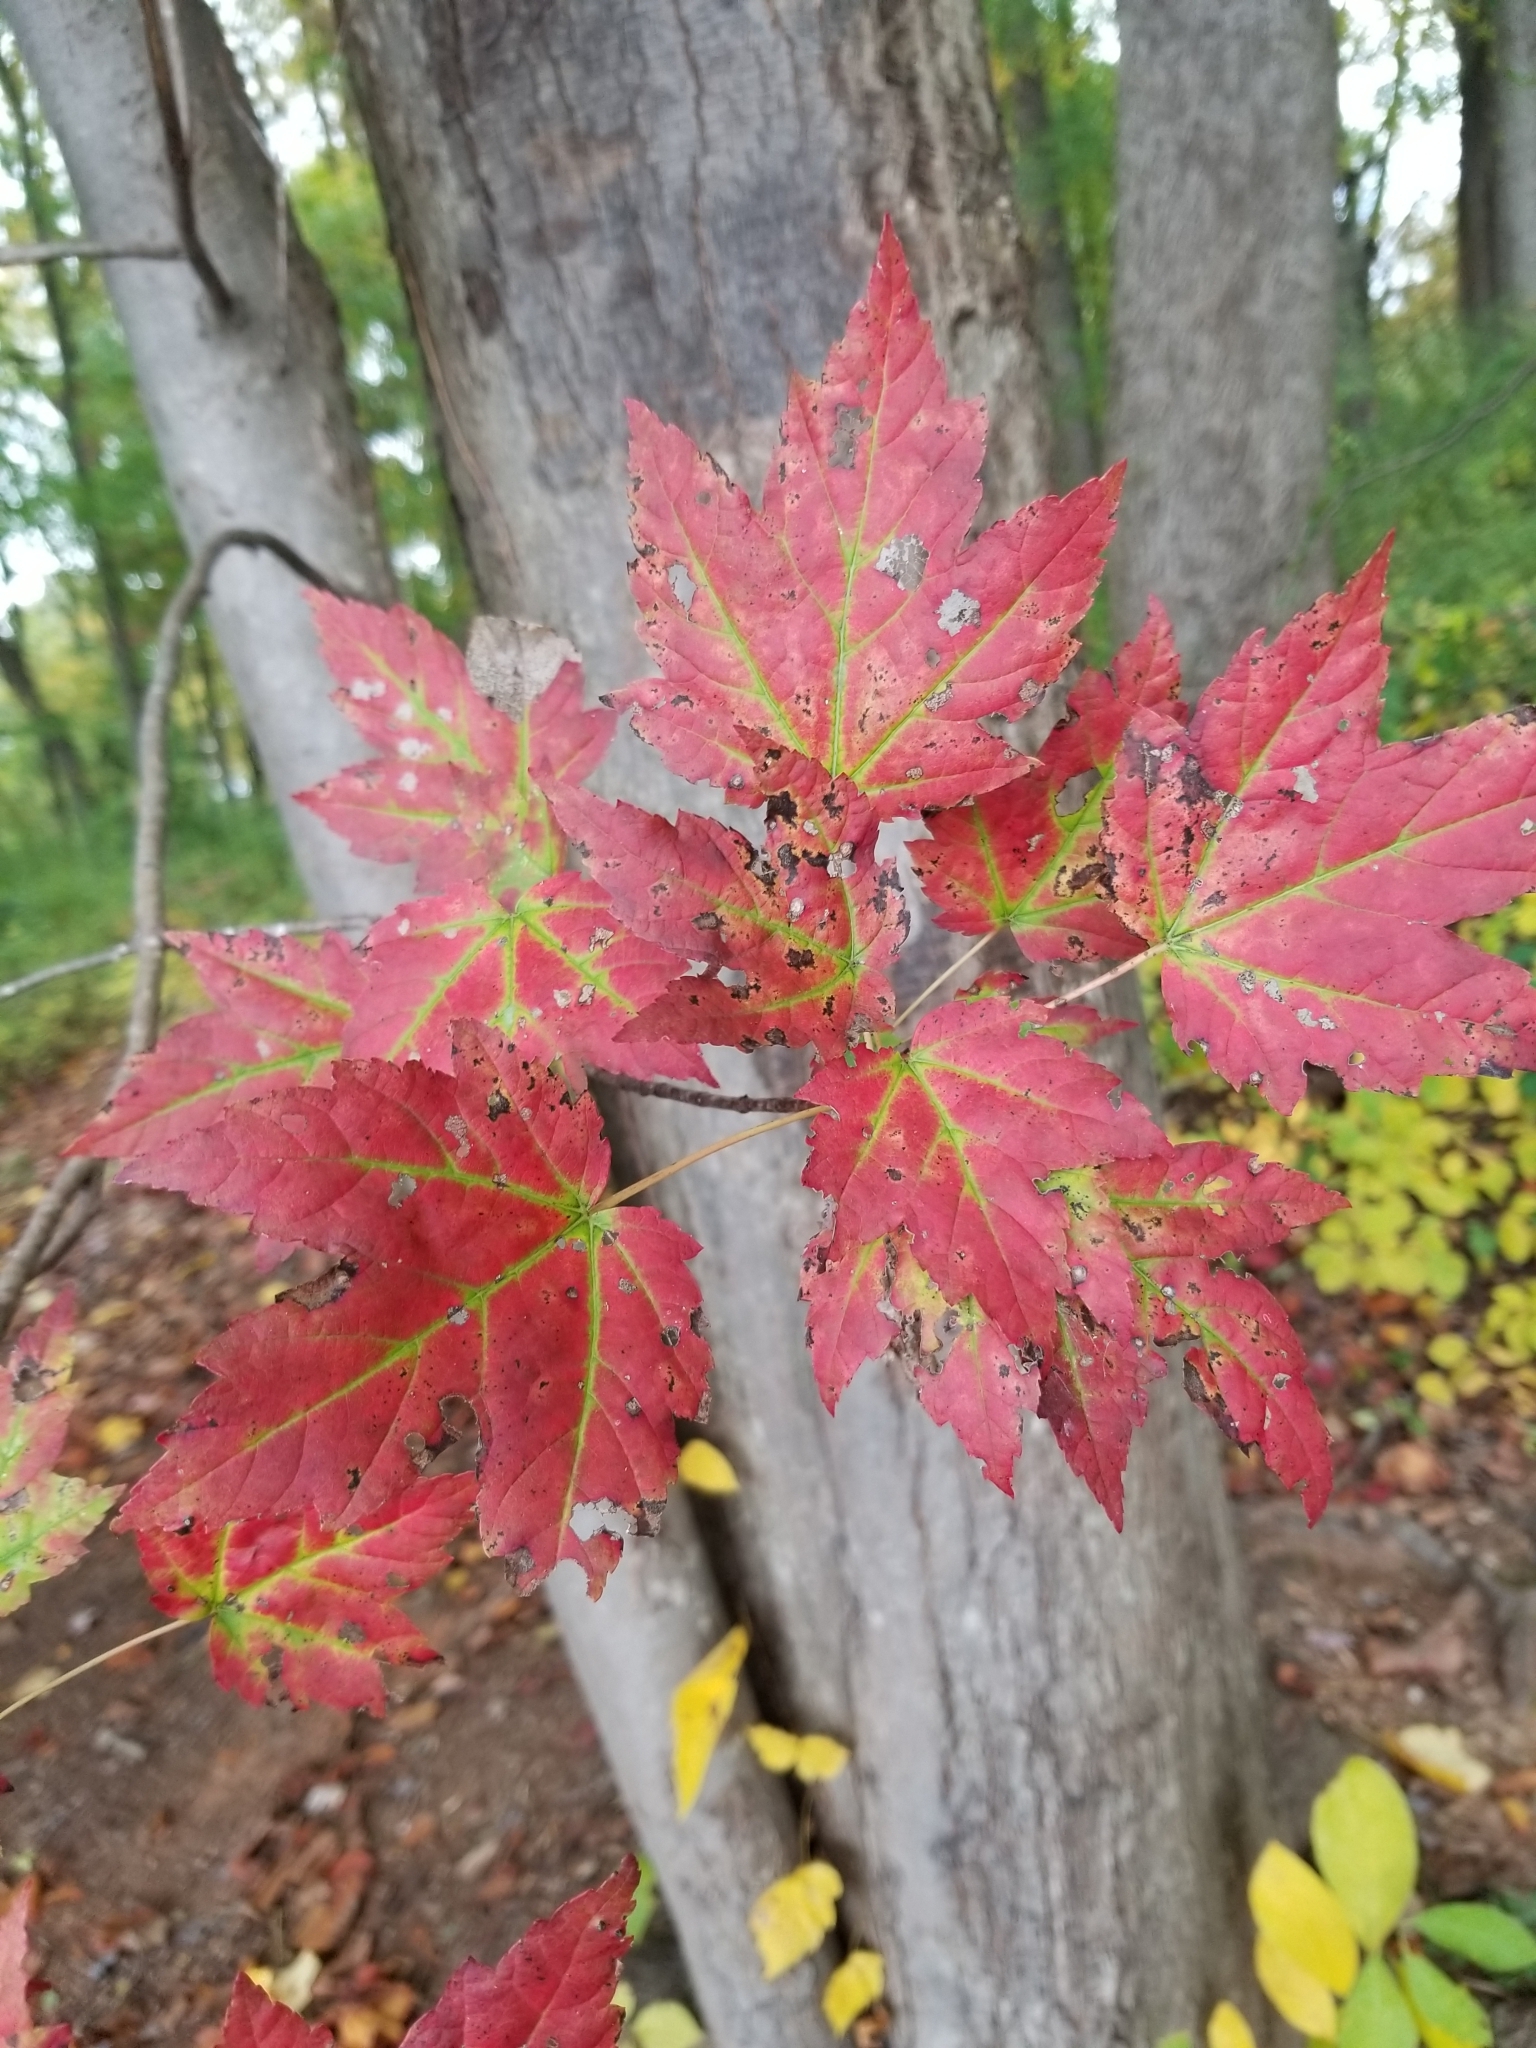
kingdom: Plantae
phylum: Tracheophyta
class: Magnoliopsida
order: Sapindales
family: Sapindaceae
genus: Acer
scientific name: Acer rubrum
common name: Red maple
